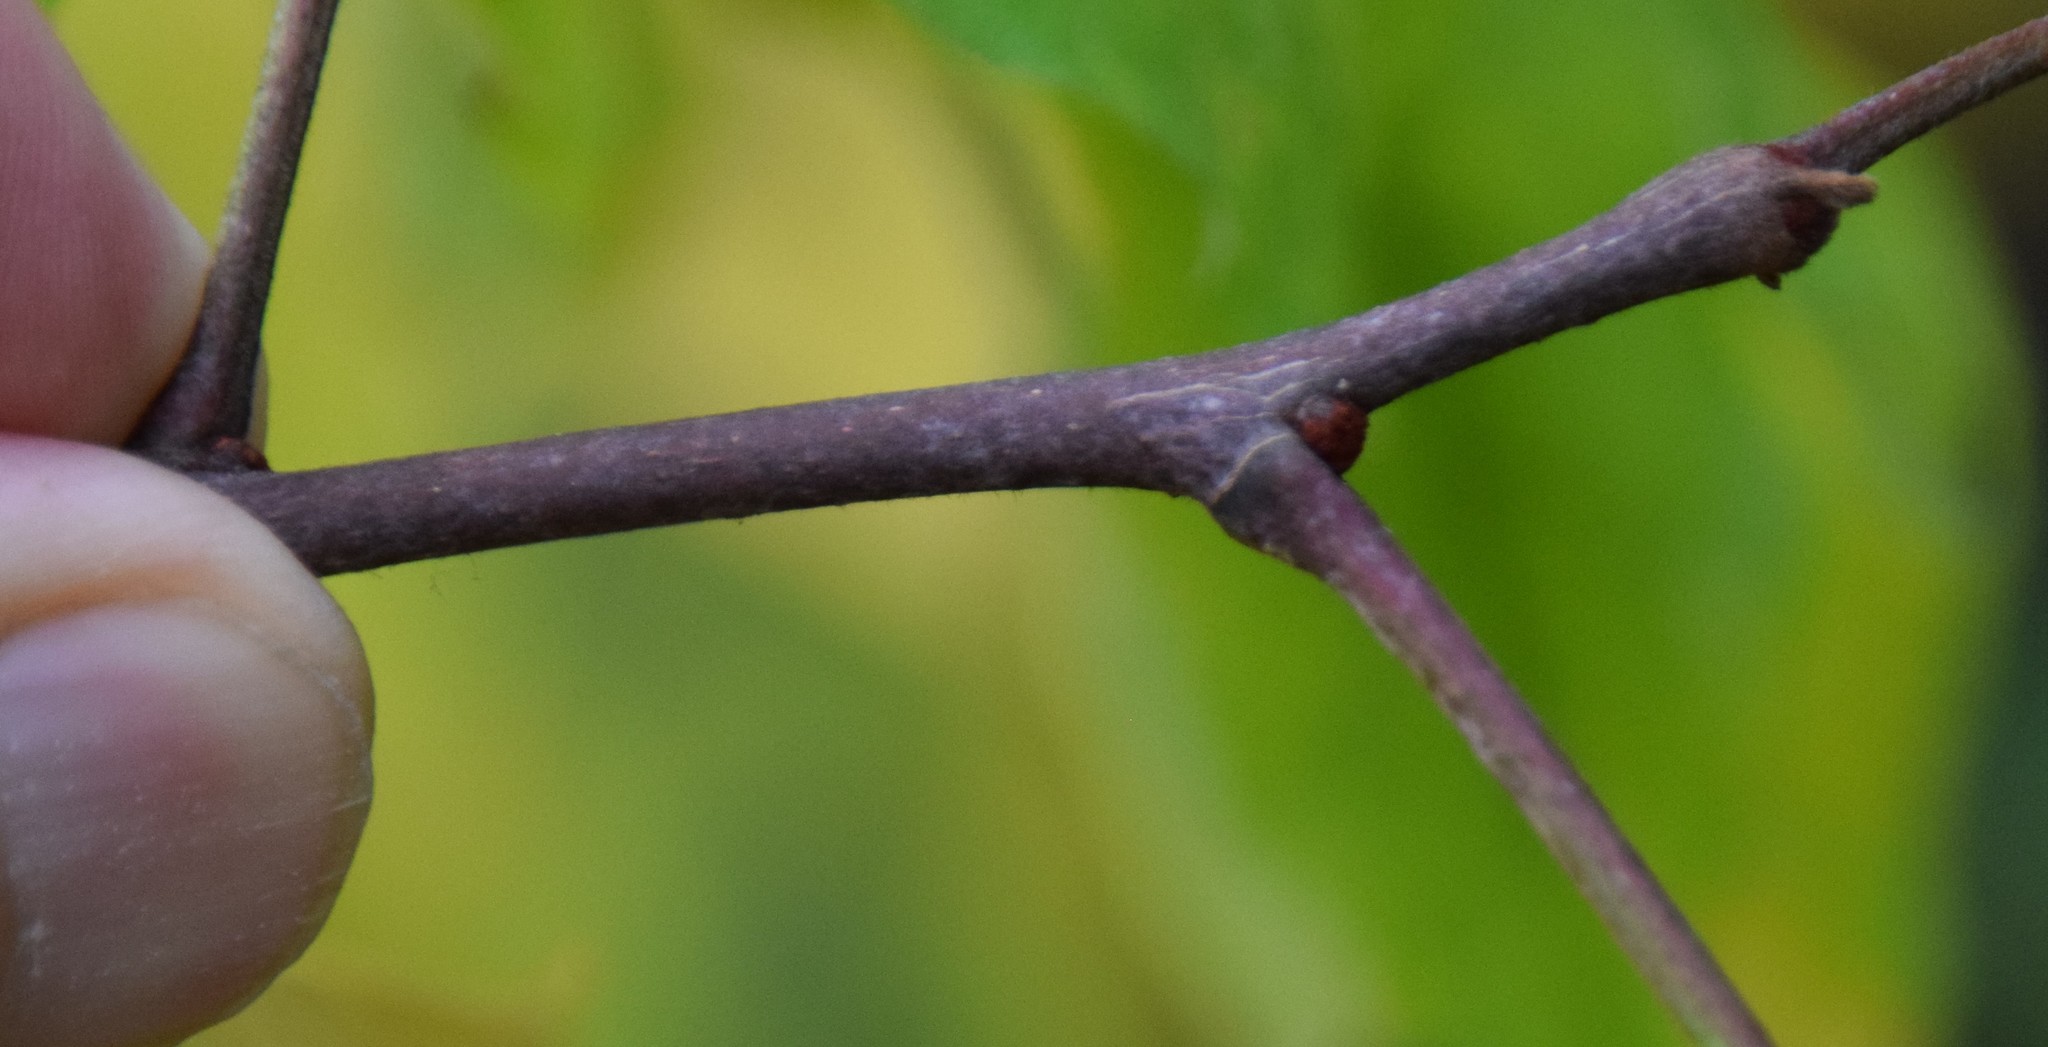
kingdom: Plantae
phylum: Tracheophyta
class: Magnoliopsida
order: Sapindales
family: Rutaceae
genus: Zanthoxylum
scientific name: Zanthoxylum americanum
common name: Northern prickly-ash
